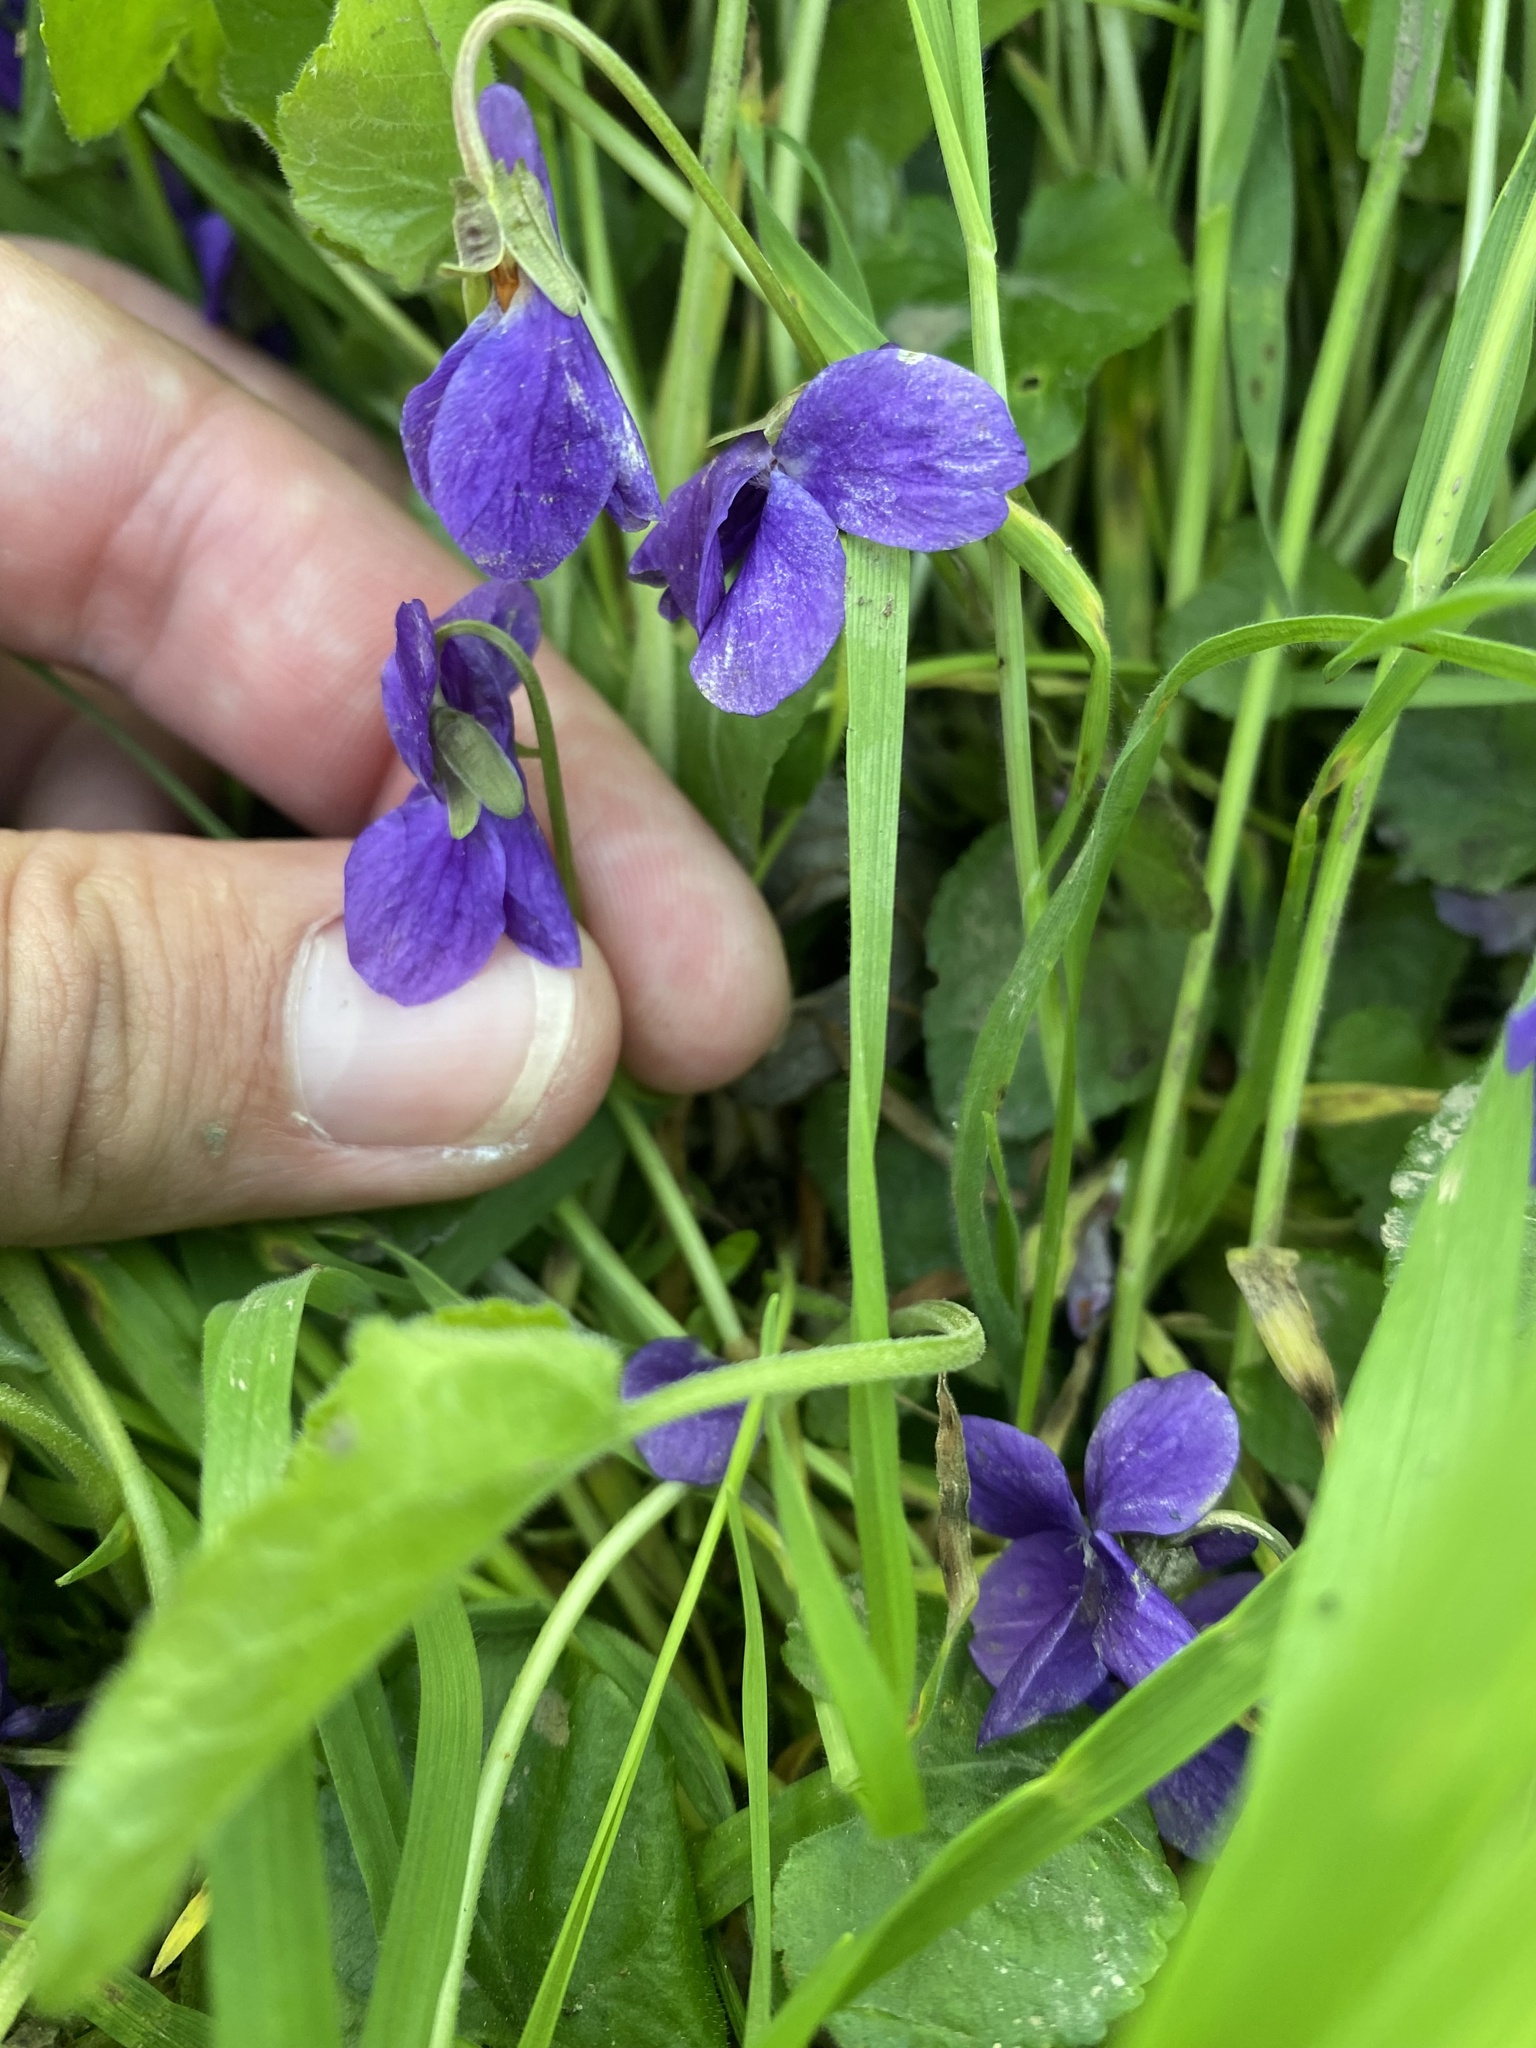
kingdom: Plantae
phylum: Tracheophyta
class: Magnoliopsida
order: Malpighiales
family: Violaceae
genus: Viola
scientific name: Viola odorata
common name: Sweet violet
